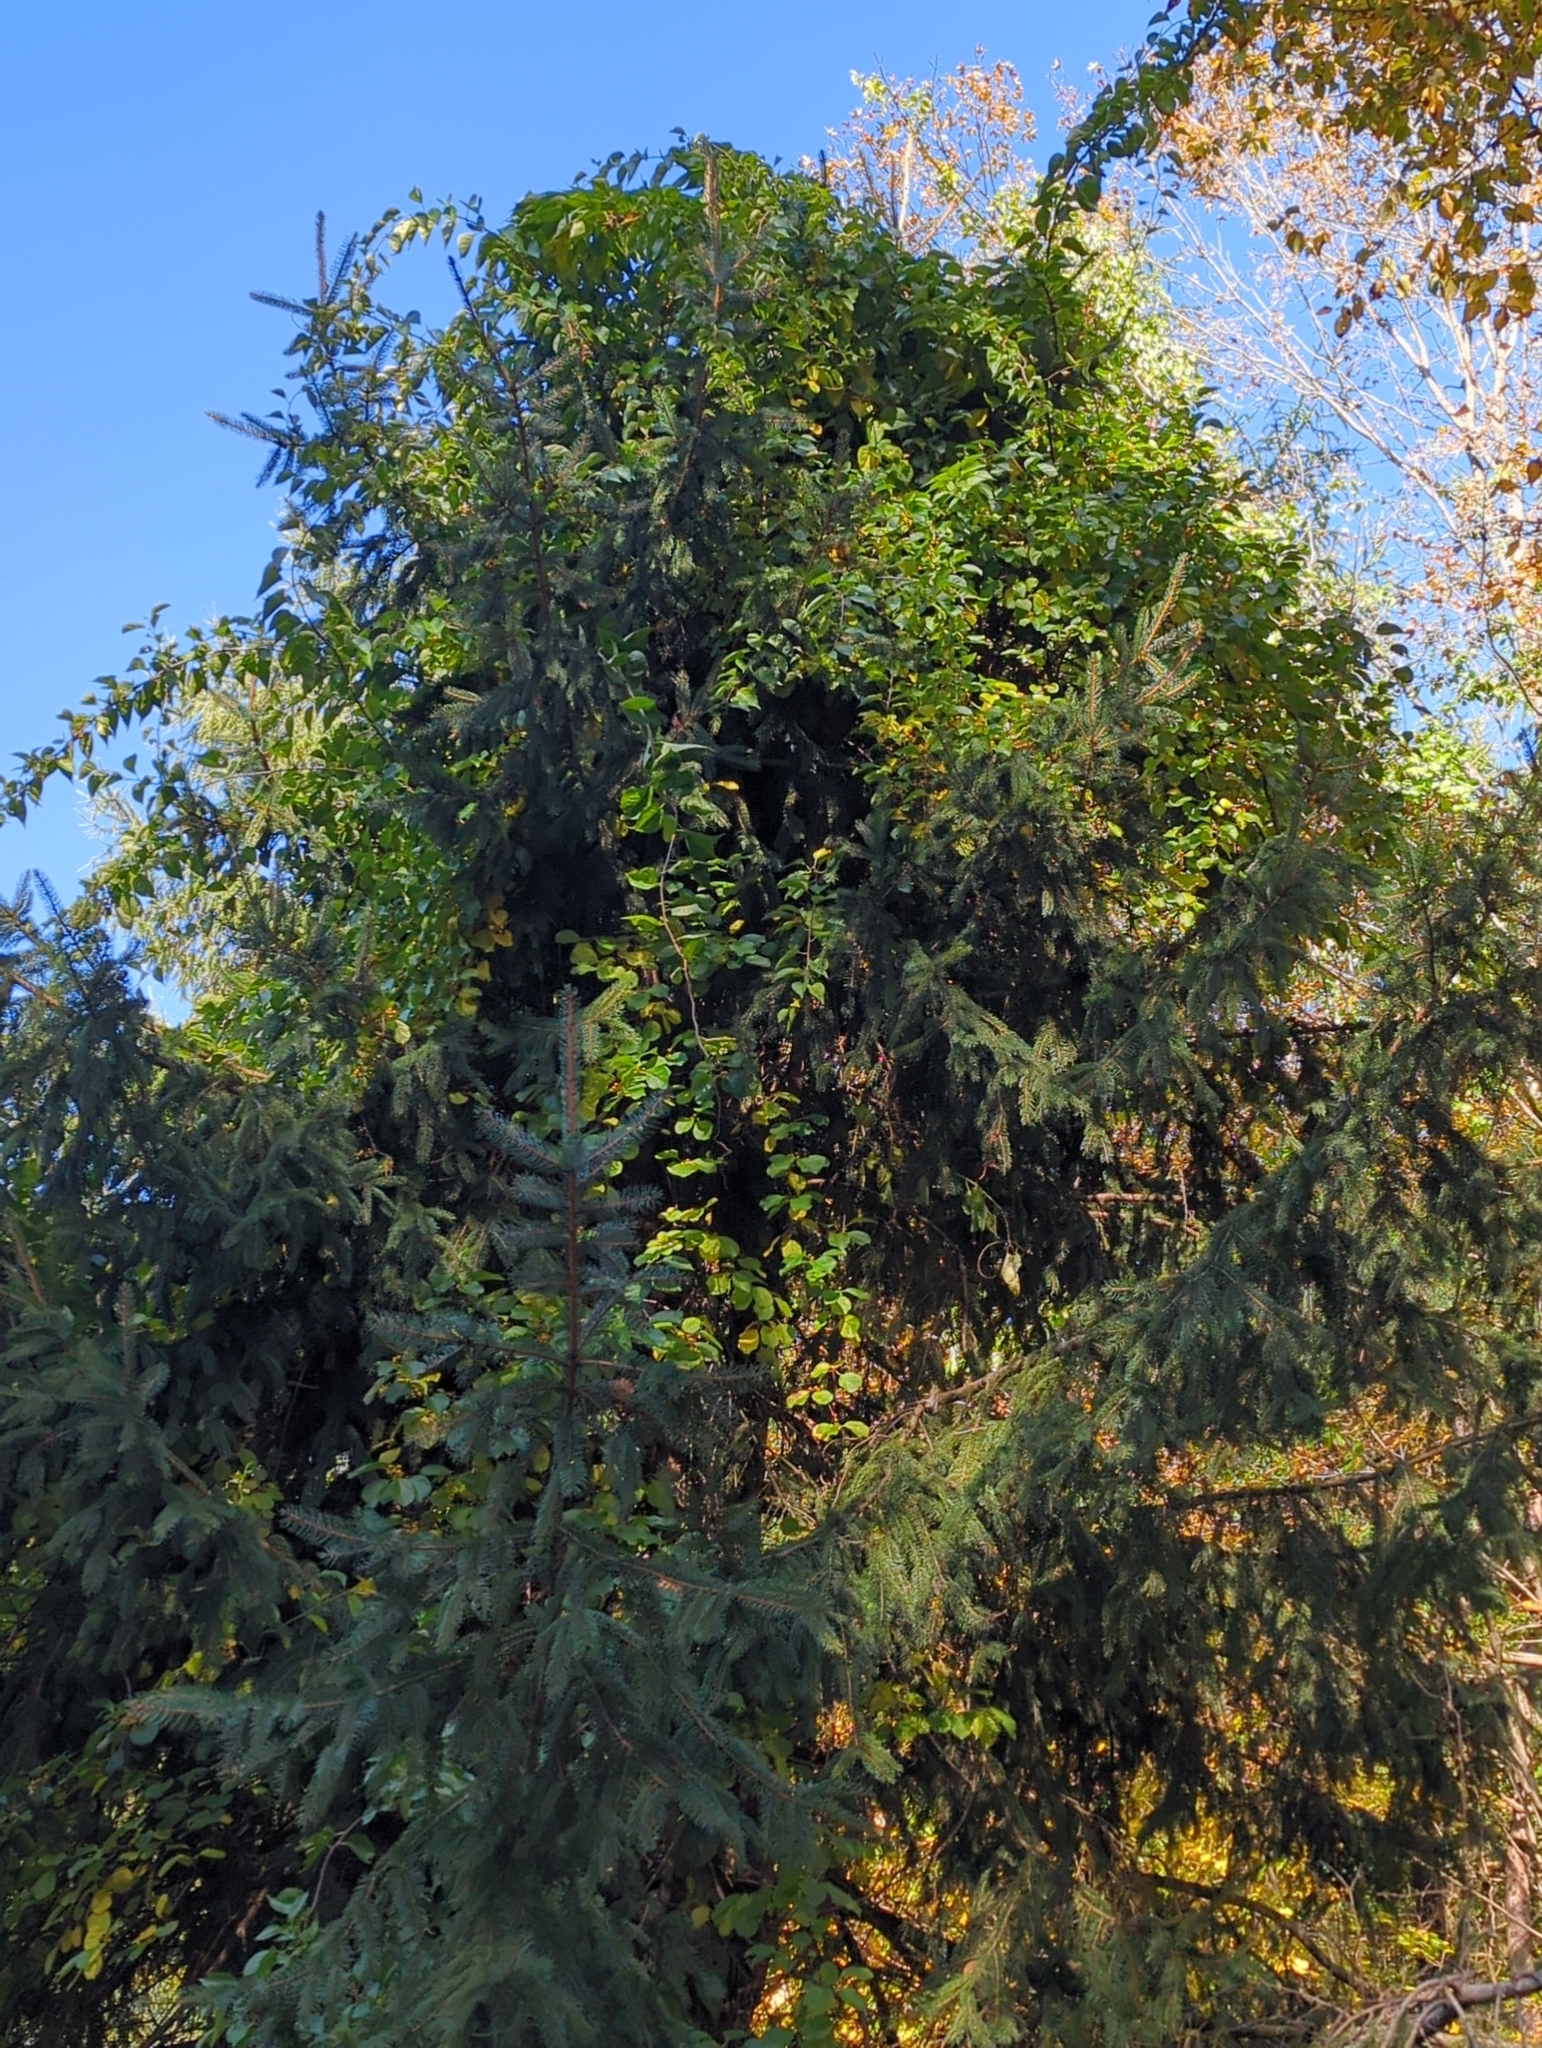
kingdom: Plantae
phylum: Tracheophyta
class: Magnoliopsida
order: Celastrales
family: Celastraceae
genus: Celastrus
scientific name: Celastrus orbiculatus
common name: Oriental bittersweet
